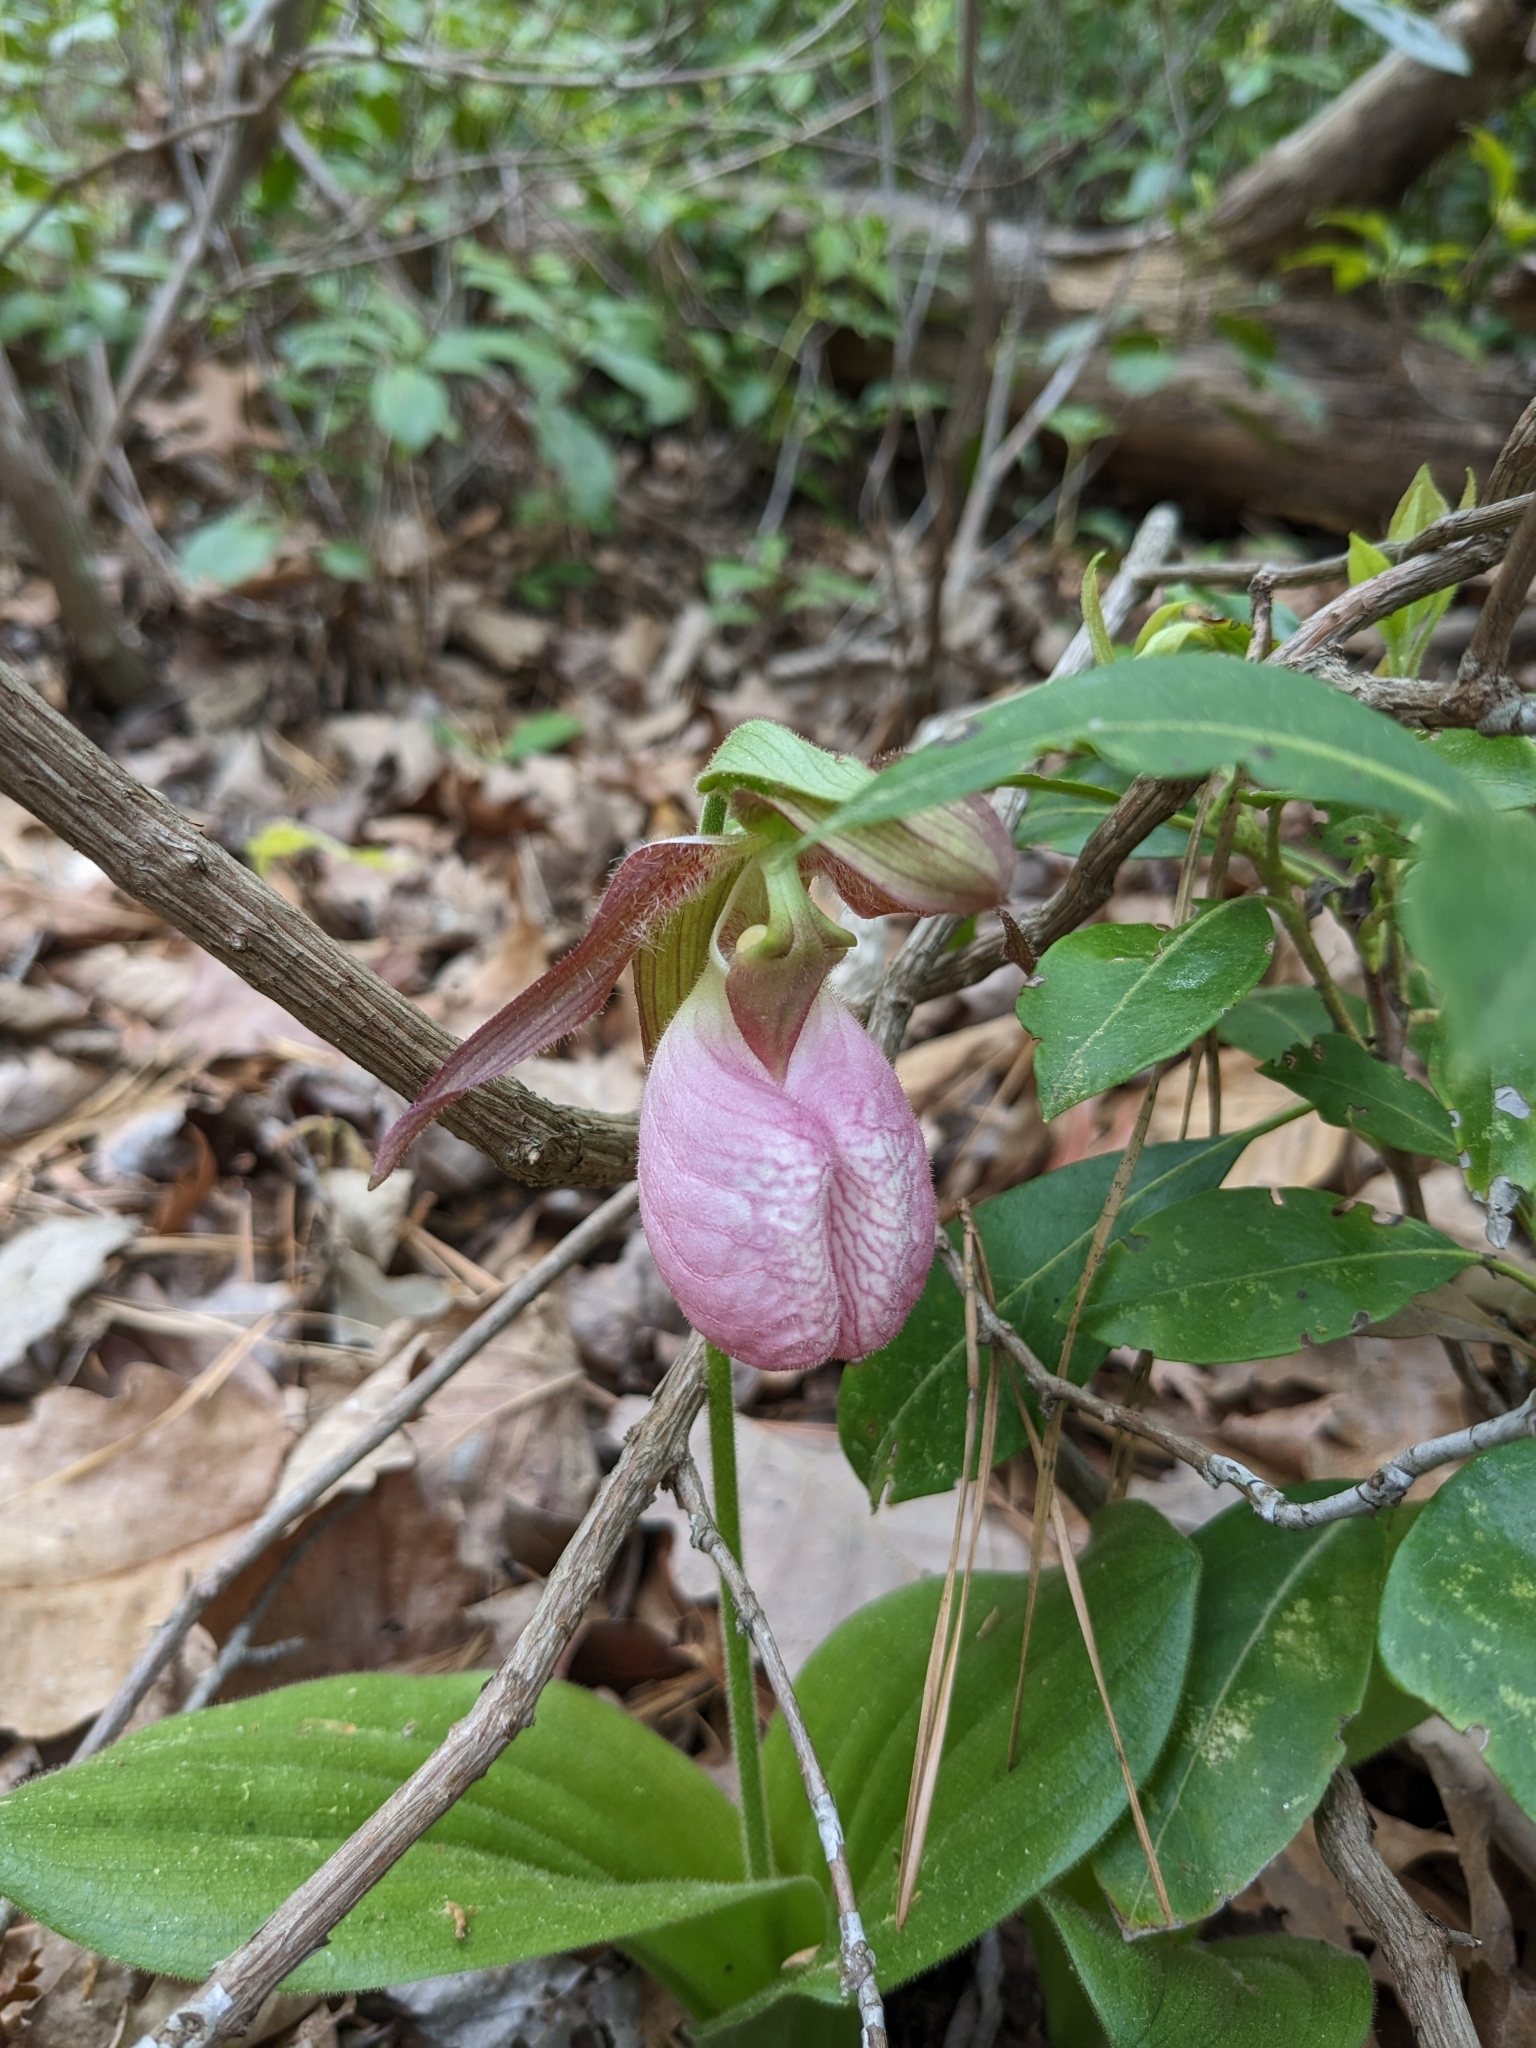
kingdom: Plantae
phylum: Tracheophyta
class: Liliopsida
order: Asparagales
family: Orchidaceae
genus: Cypripedium
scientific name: Cypripedium acaule
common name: Pink lady's-slipper
